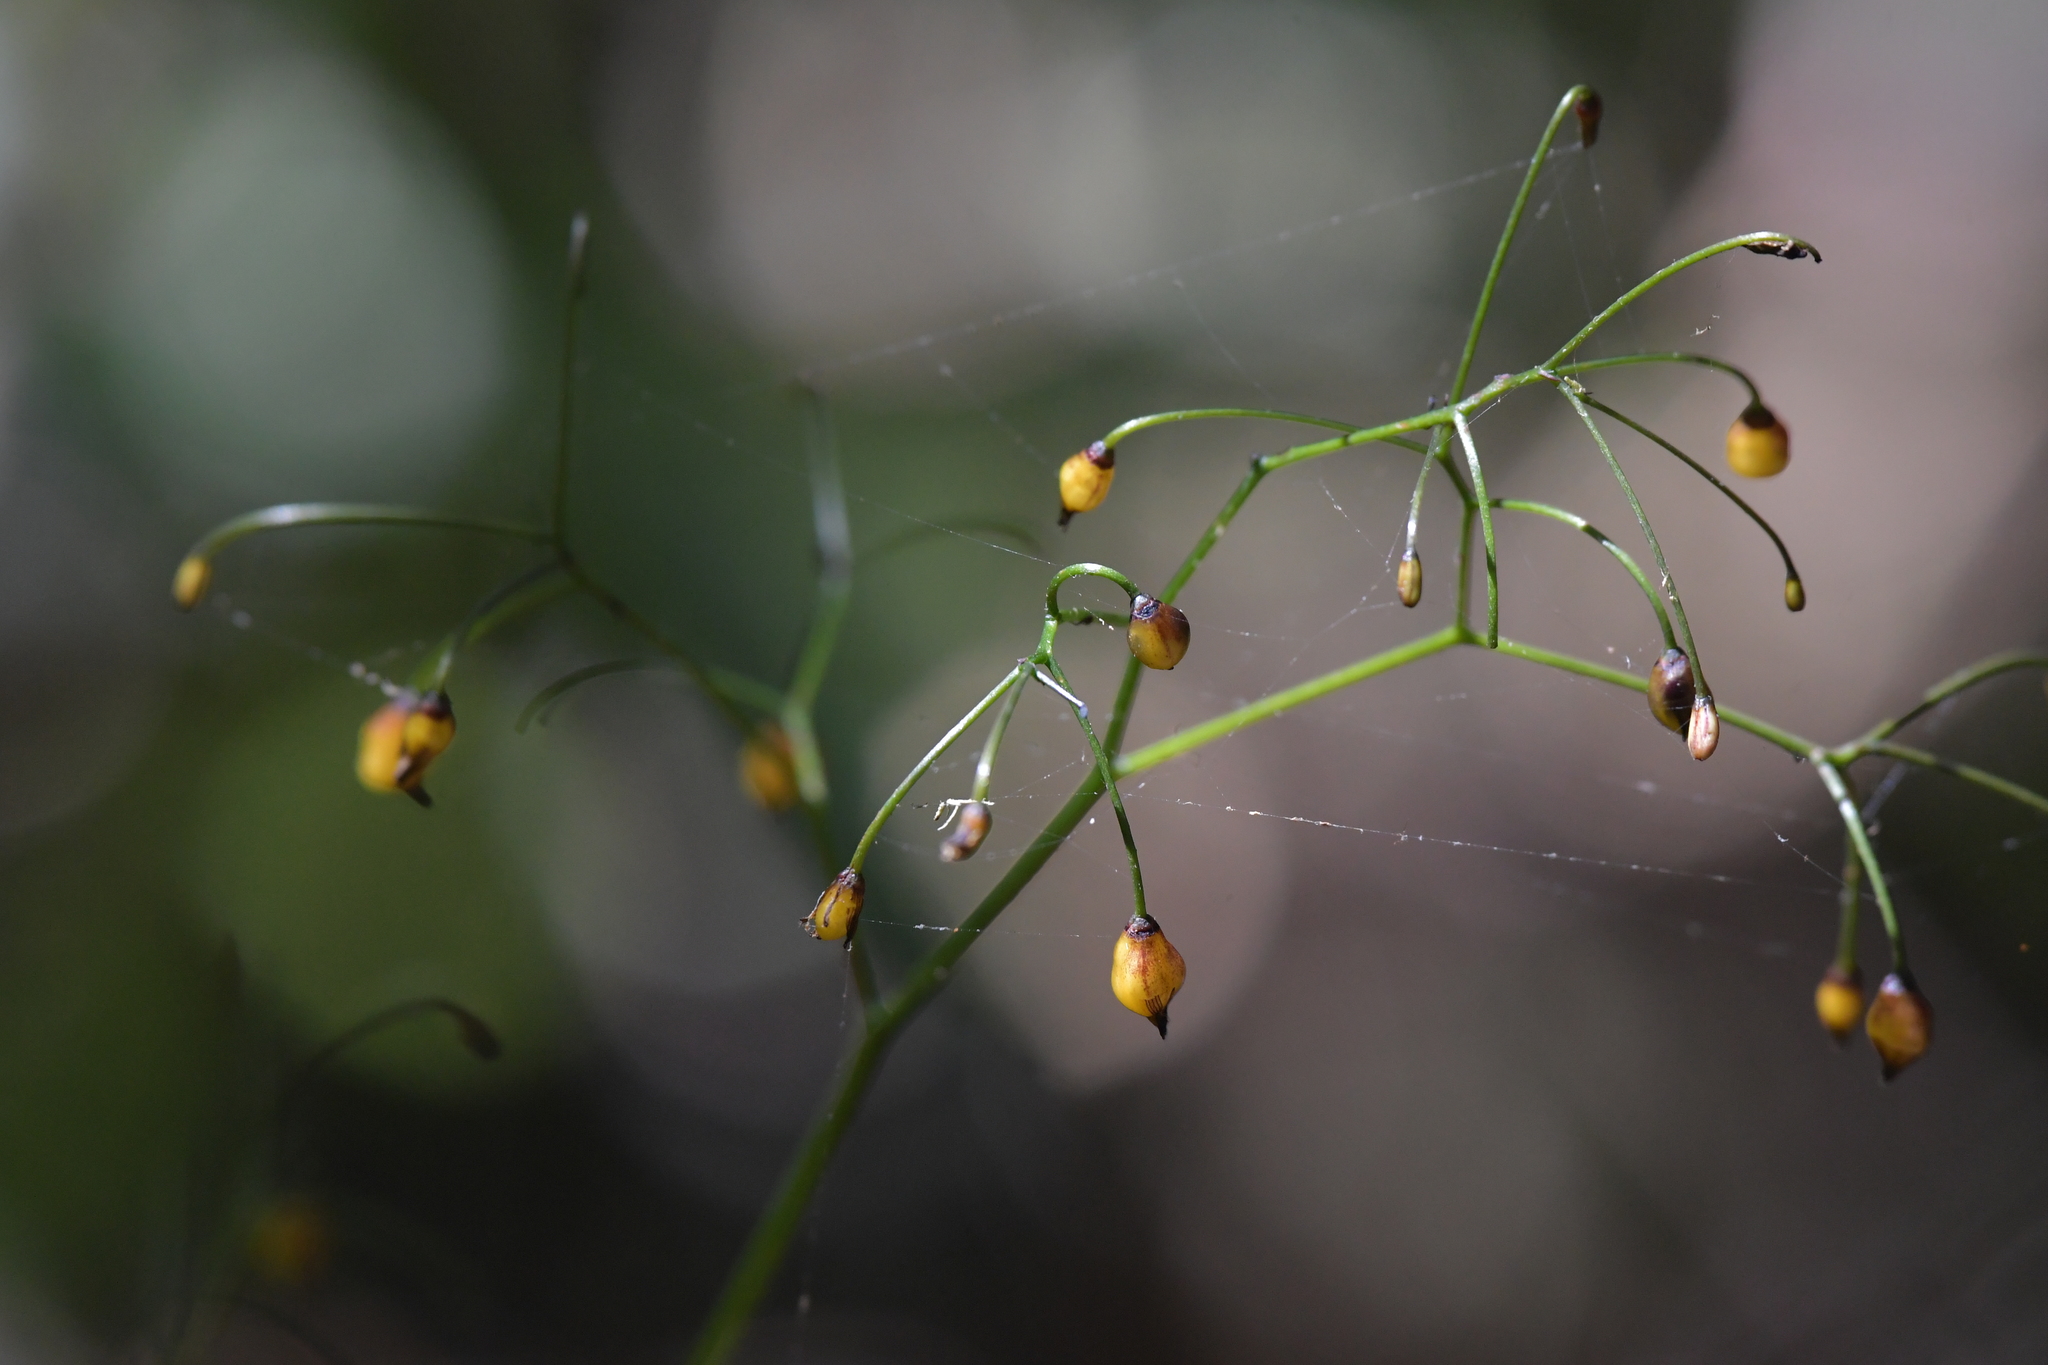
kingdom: Plantae
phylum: Tracheophyta
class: Liliopsida
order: Asparagales
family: Asphodelaceae
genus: Dianella
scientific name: Dianella nigra
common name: New zealand-blueberry
